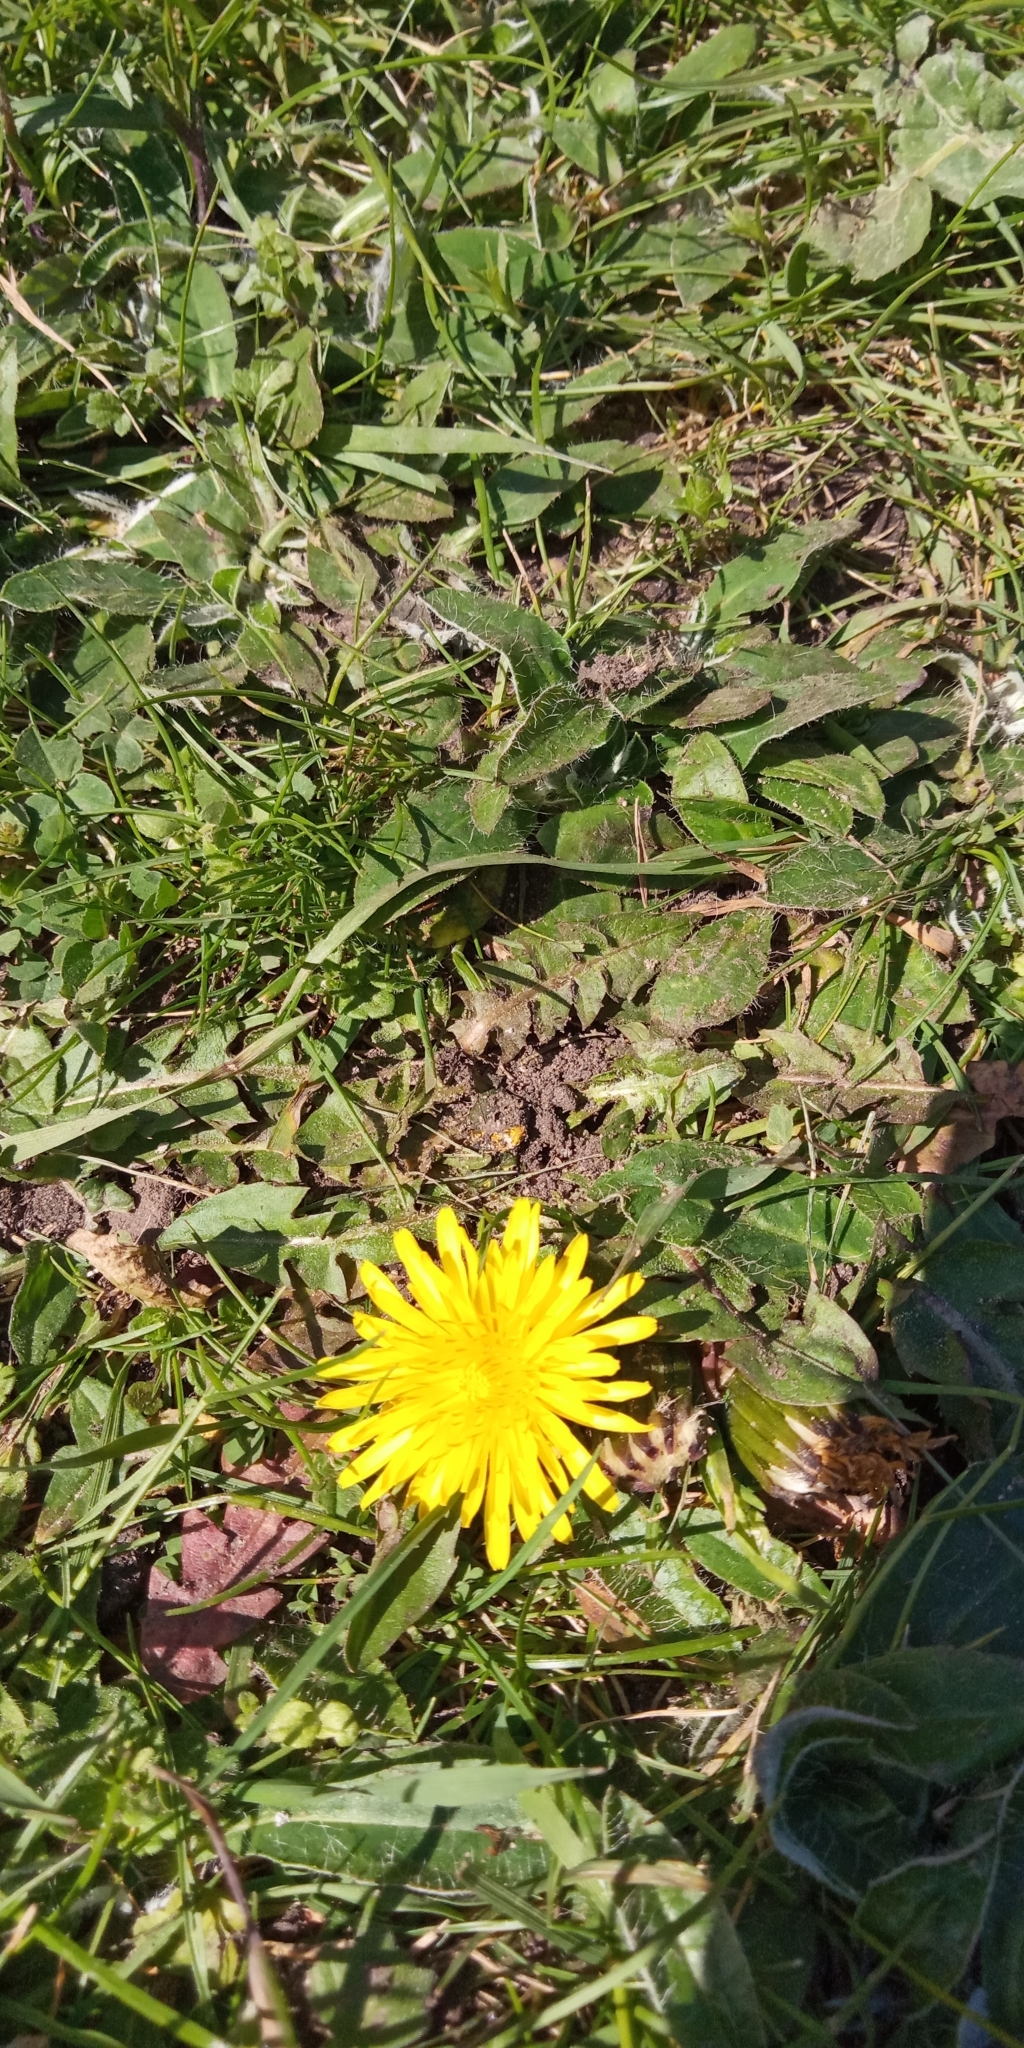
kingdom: Plantae
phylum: Tracheophyta
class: Magnoliopsida
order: Asterales
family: Asteraceae
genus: Taraxacum
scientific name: Taraxacum officinale
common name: Common dandelion
